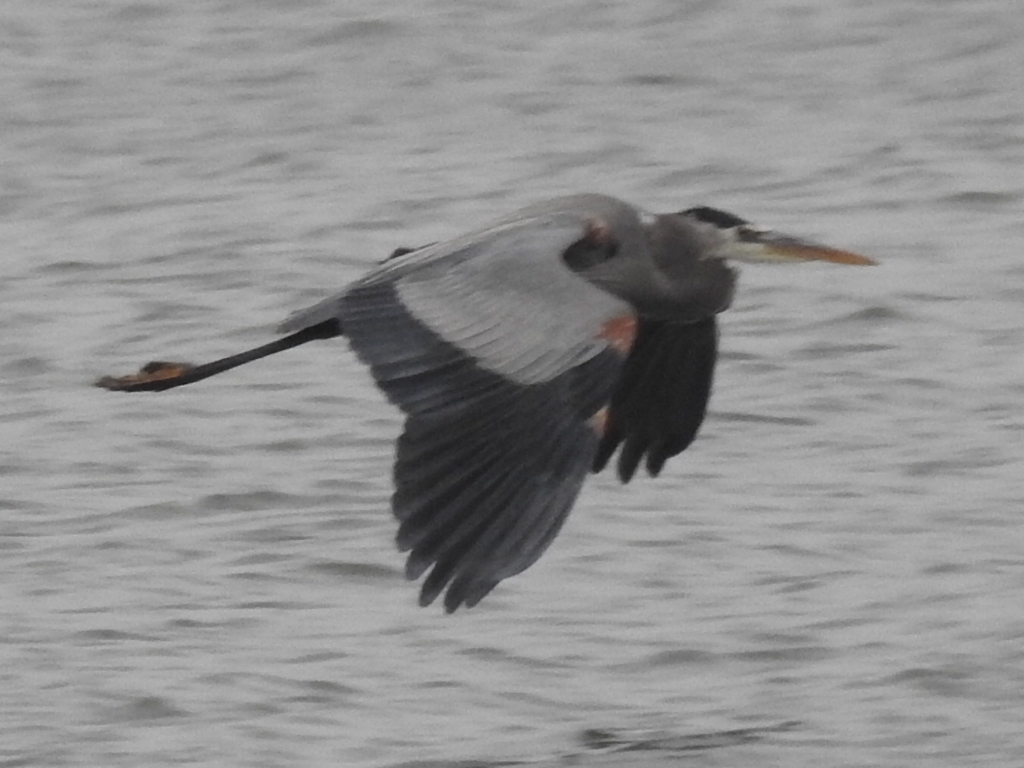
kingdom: Animalia
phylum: Chordata
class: Aves
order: Pelecaniformes
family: Ardeidae
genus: Ardea
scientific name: Ardea herodias
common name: Great blue heron
